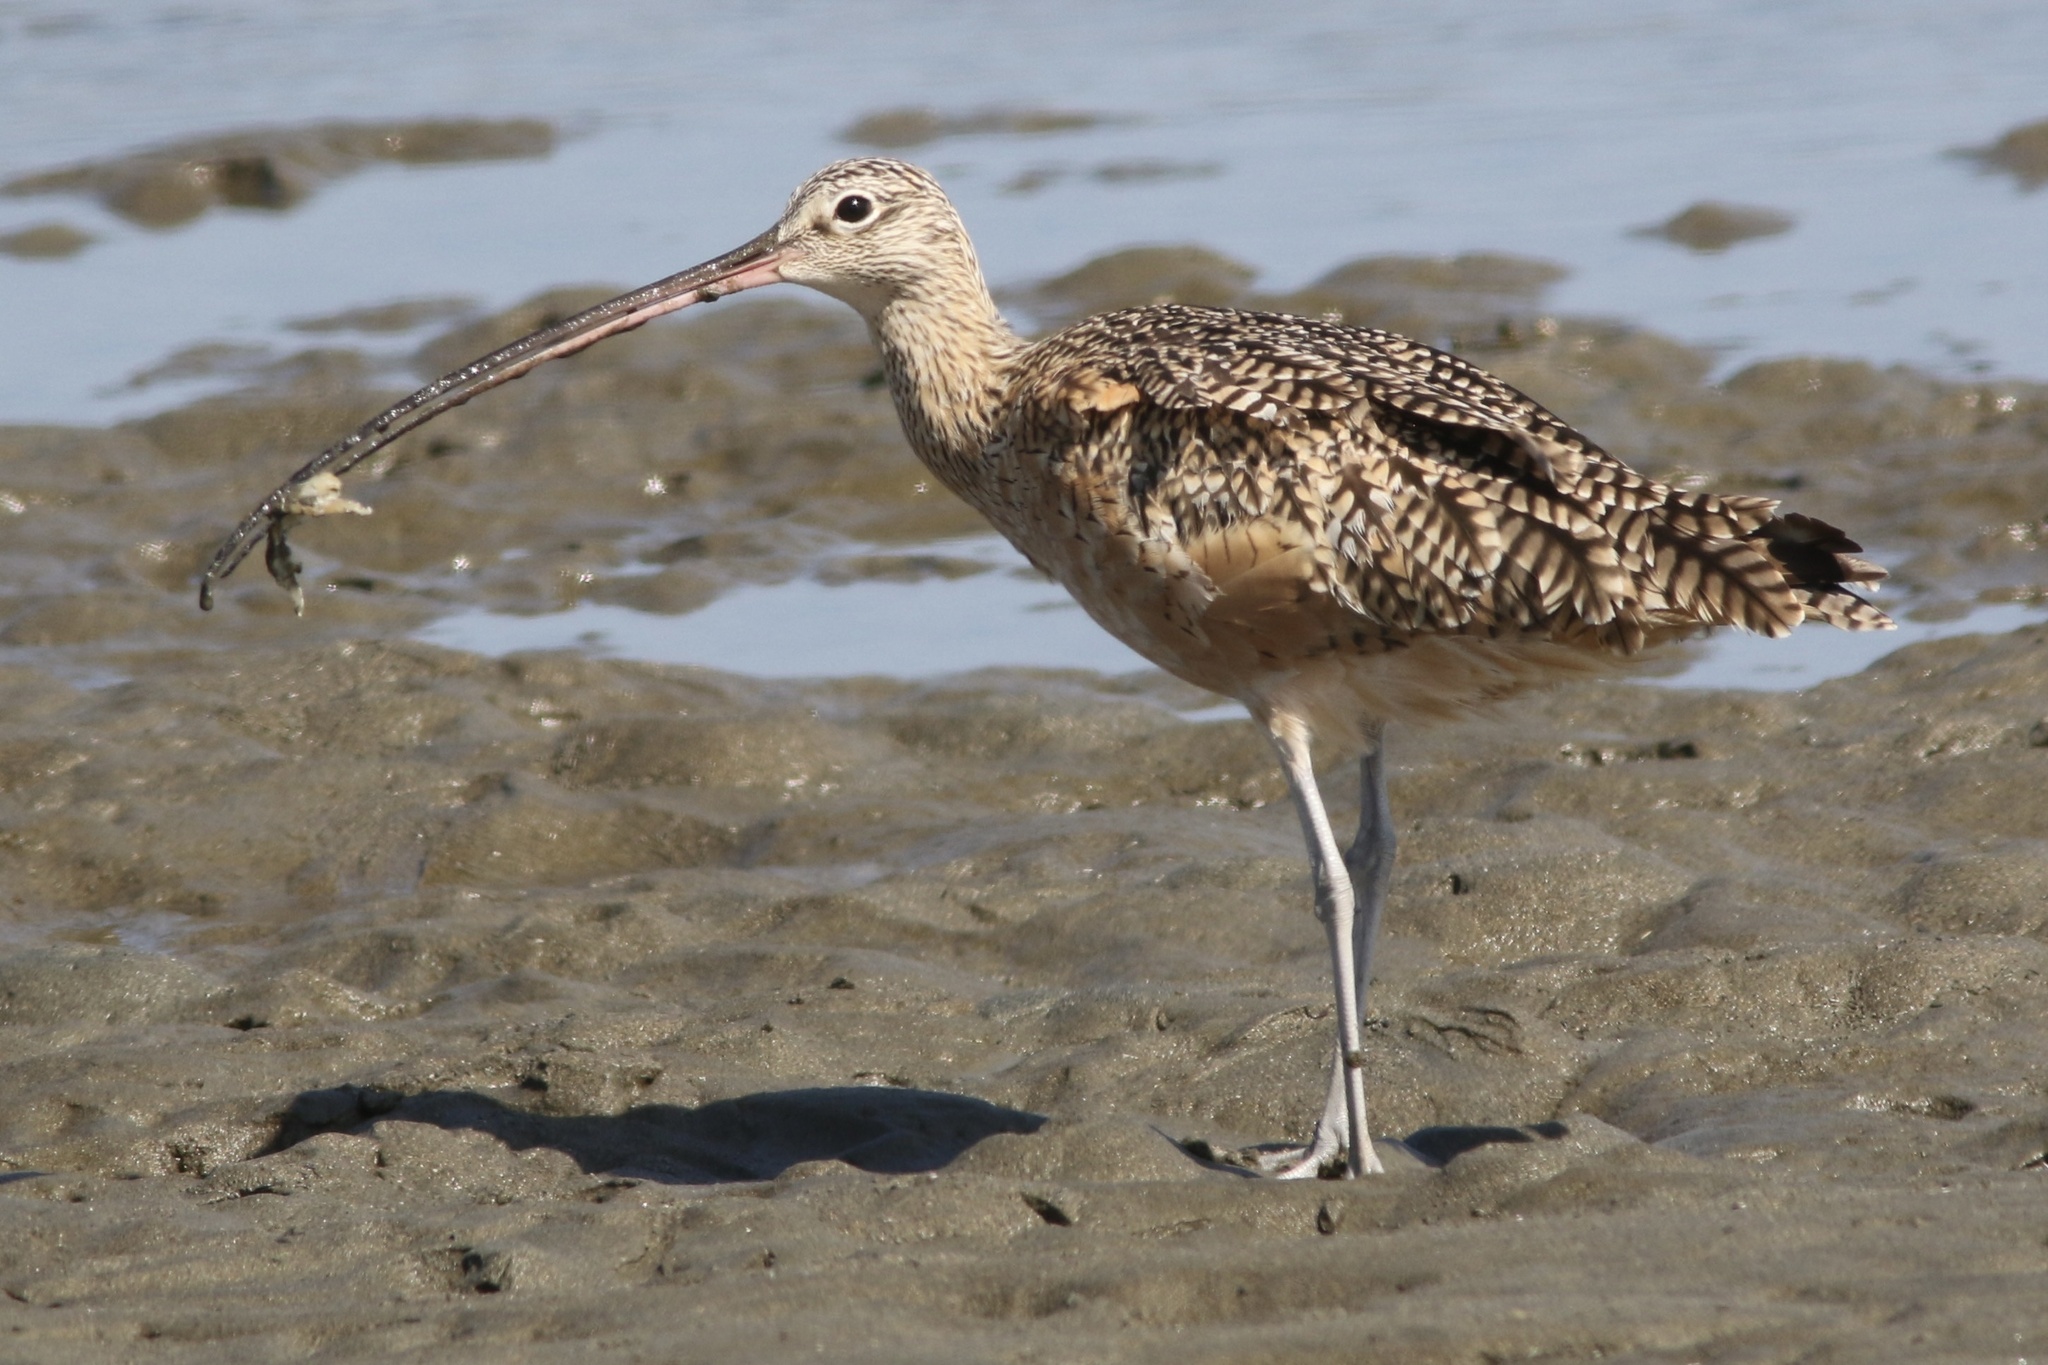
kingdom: Animalia
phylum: Chordata
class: Aves
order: Charadriiformes
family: Scolopacidae
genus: Numenius
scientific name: Numenius americanus
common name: Long-billed curlew
